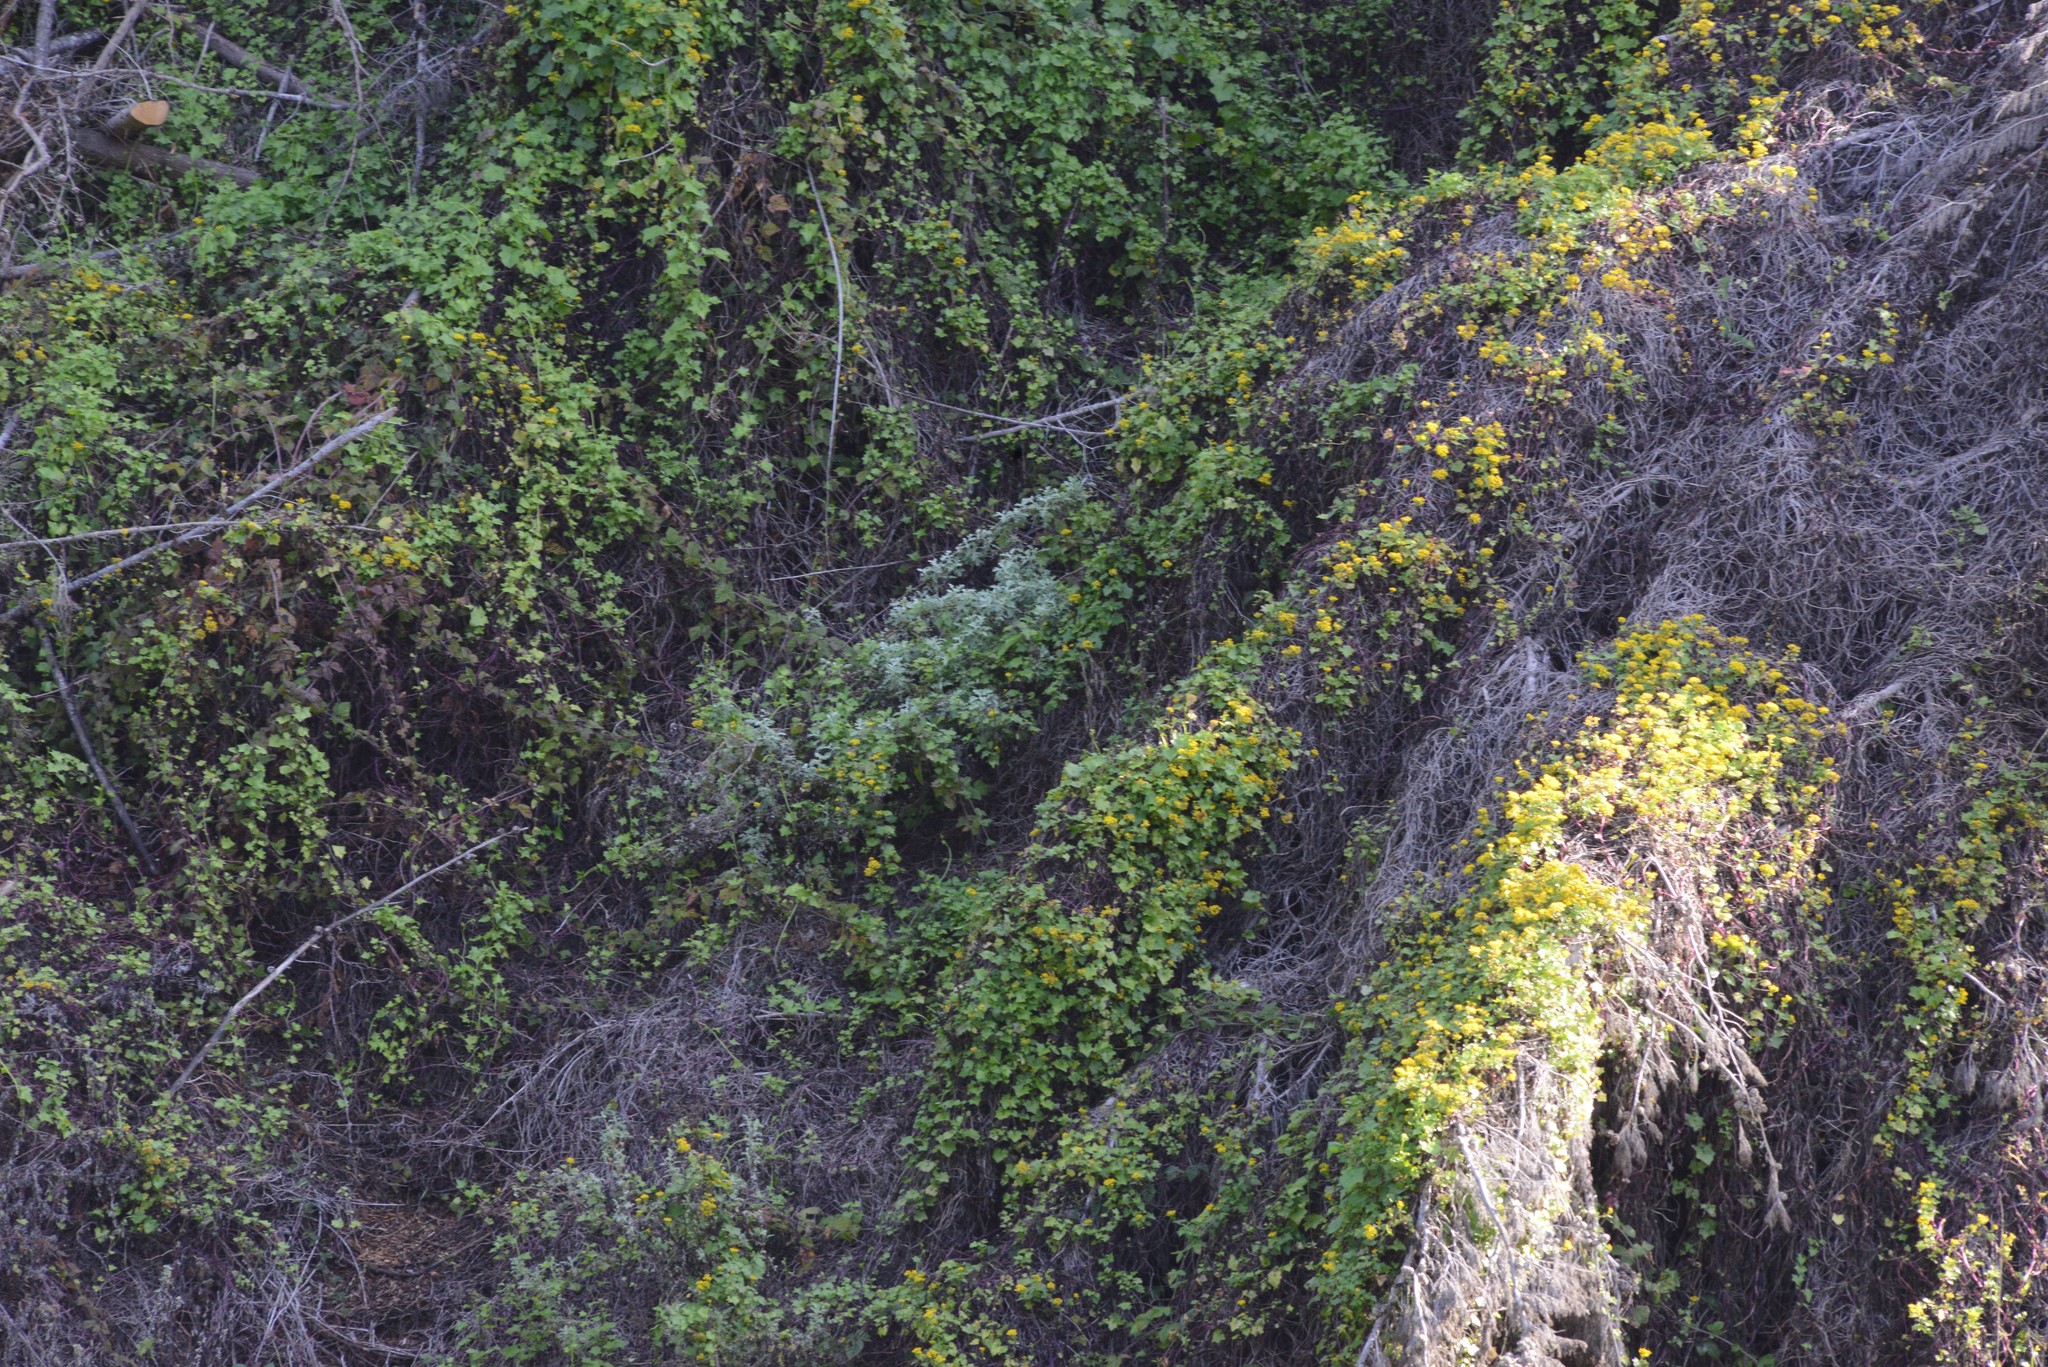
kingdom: Plantae
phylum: Tracheophyta
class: Magnoliopsida
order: Asterales
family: Asteraceae
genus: Delairea
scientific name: Delairea odorata
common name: Cape-ivy
